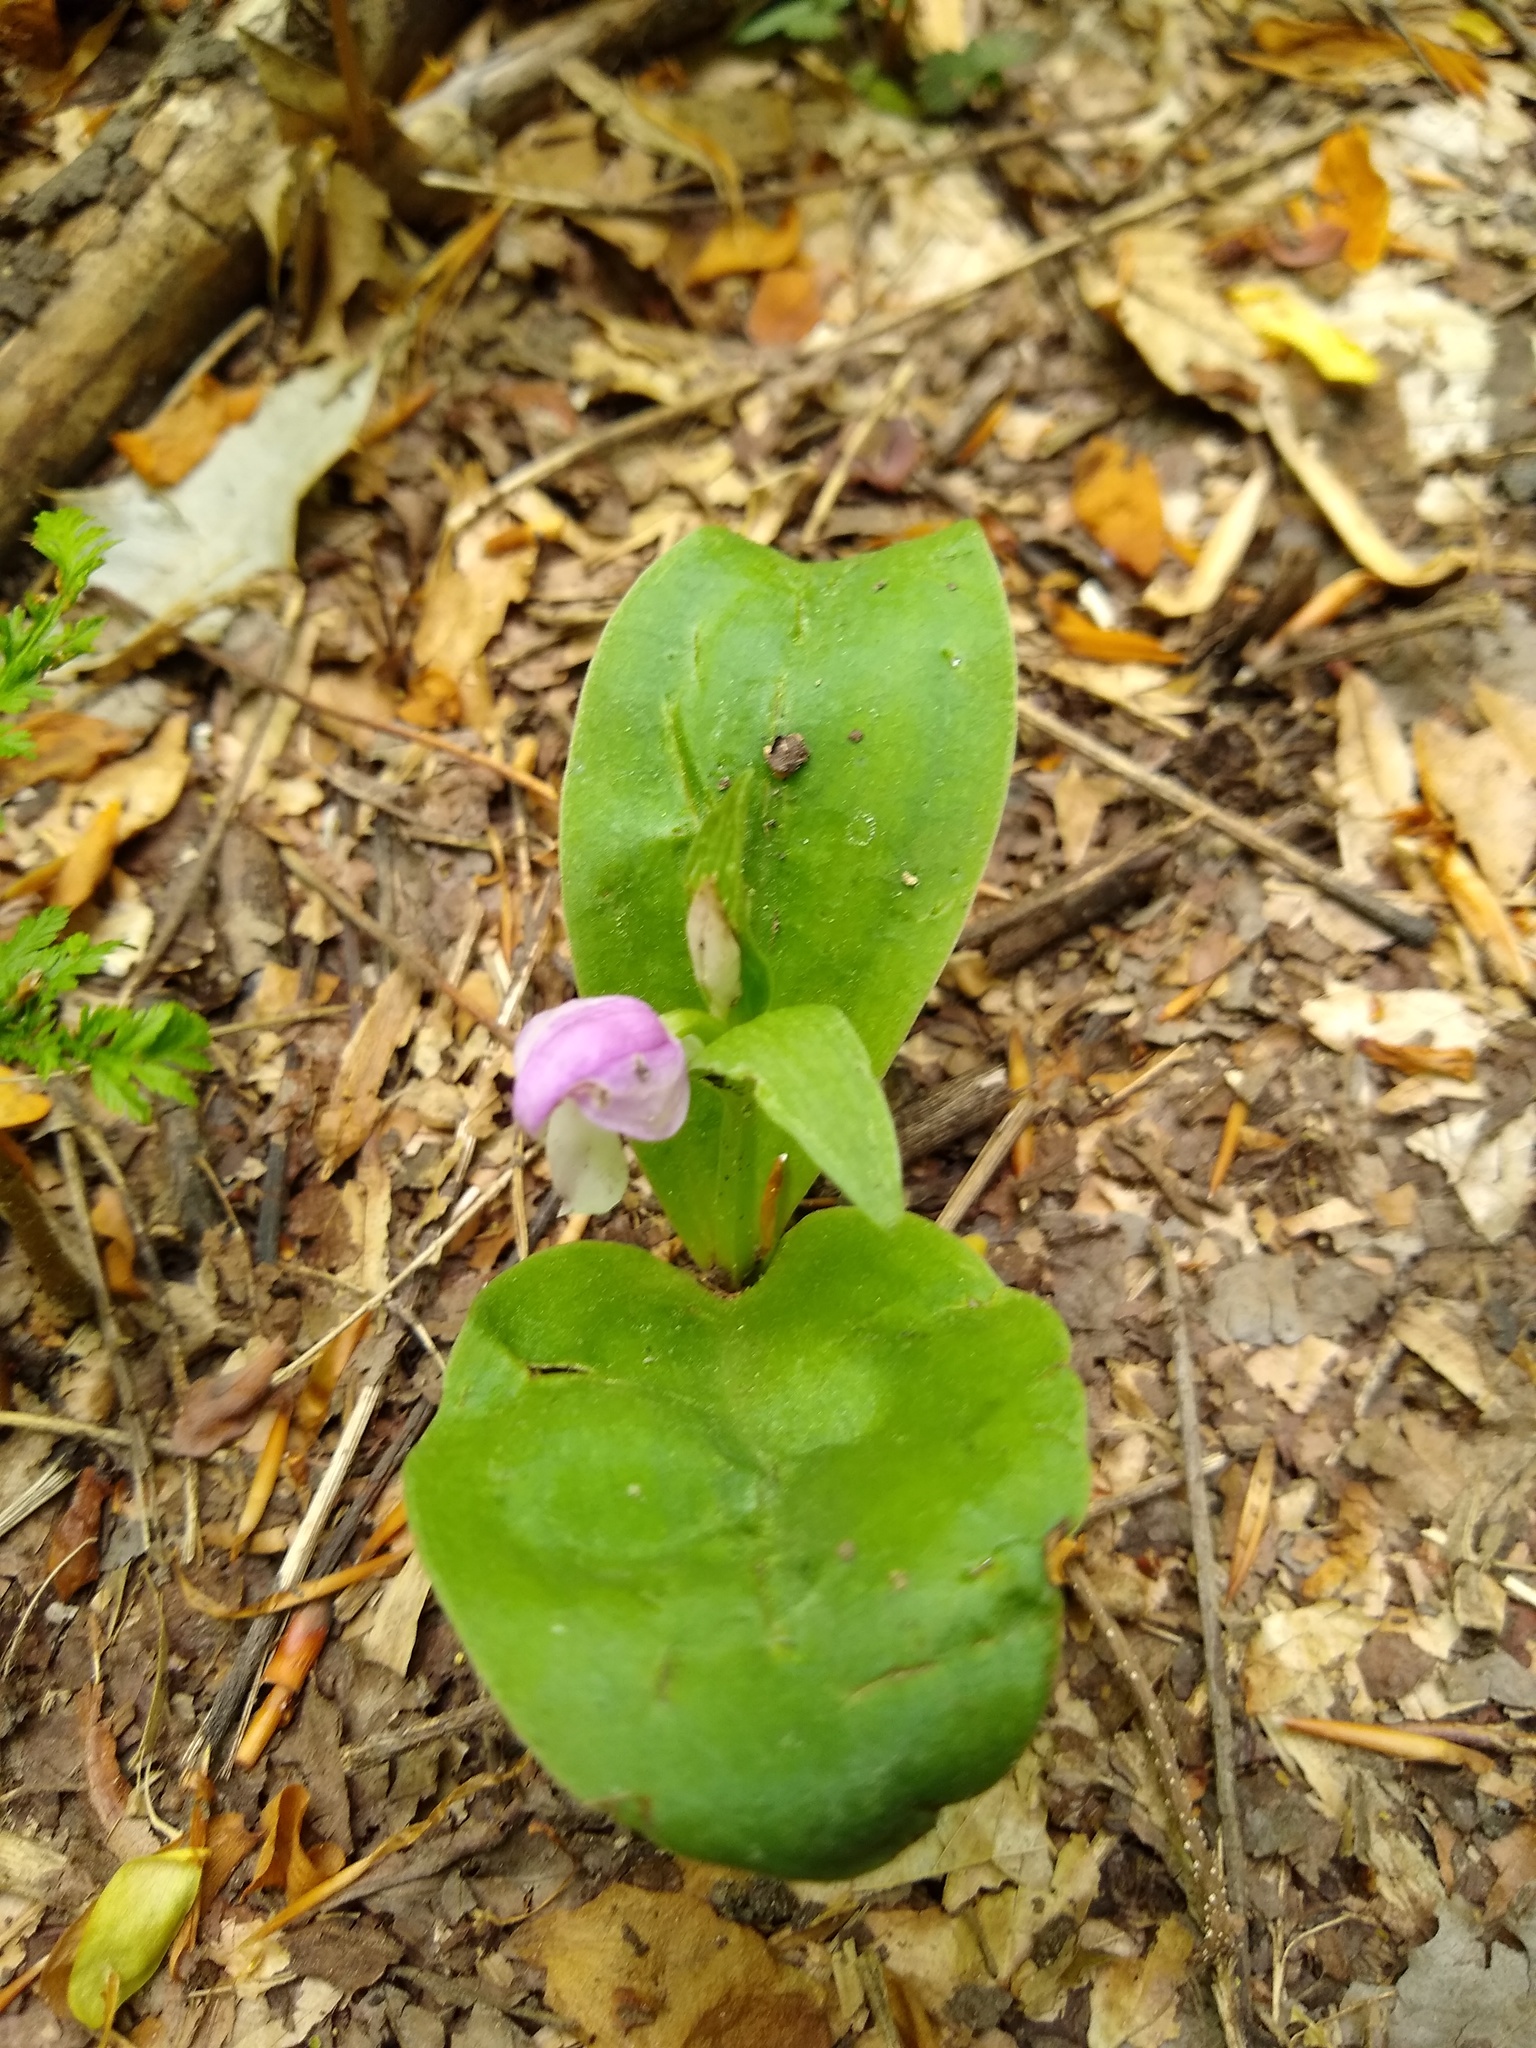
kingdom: Plantae
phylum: Tracheophyta
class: Liliopsida
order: Asparagales
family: Orchidaceae
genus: Galearis
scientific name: Galearis spectabilis
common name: Purple-hooded orchis
